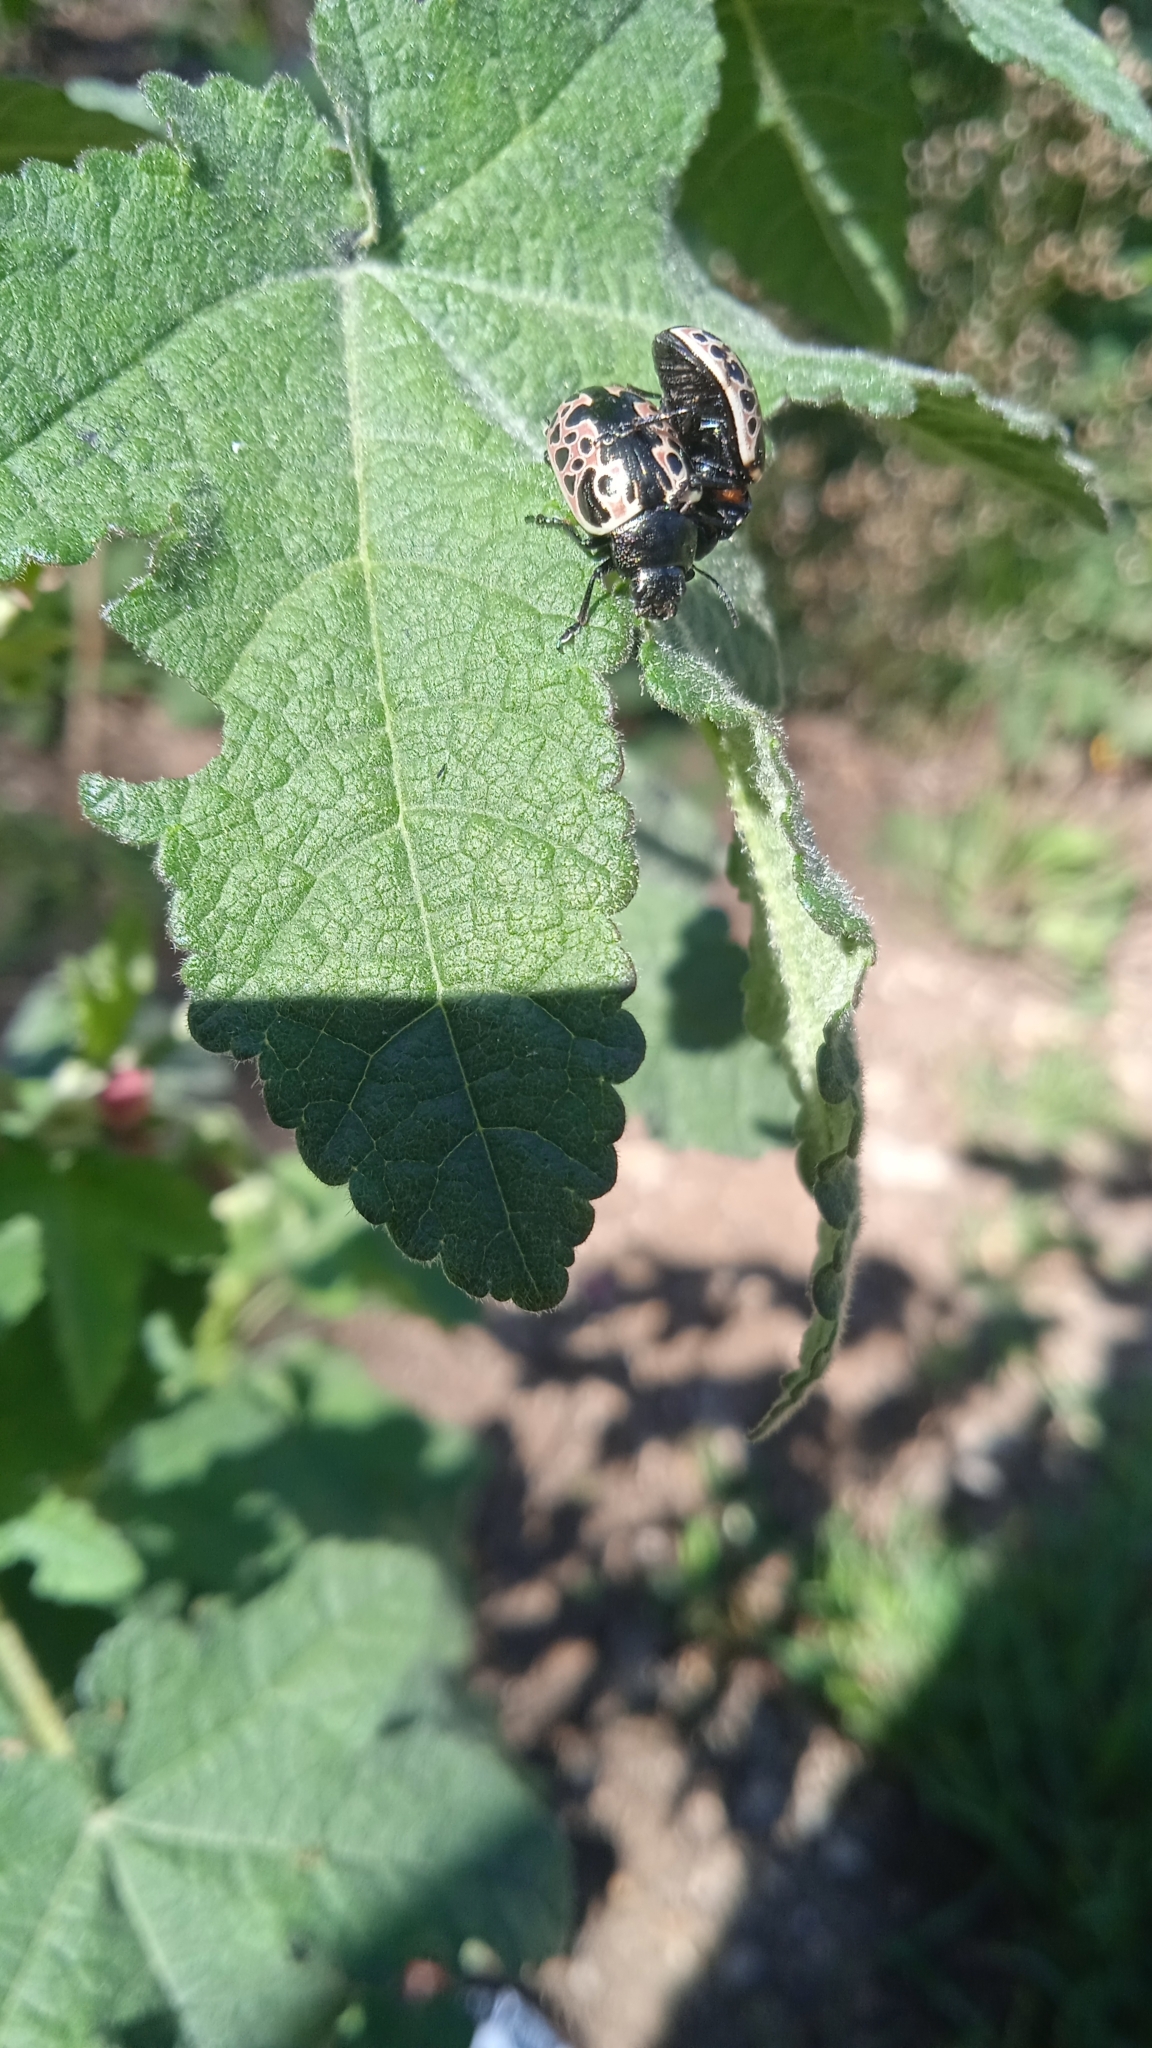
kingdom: Animalia
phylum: Arthropoda
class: Insecta
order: Coleoptera
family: Chrysomelidae
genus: Calligrapha
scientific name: Calligrapha diversa
